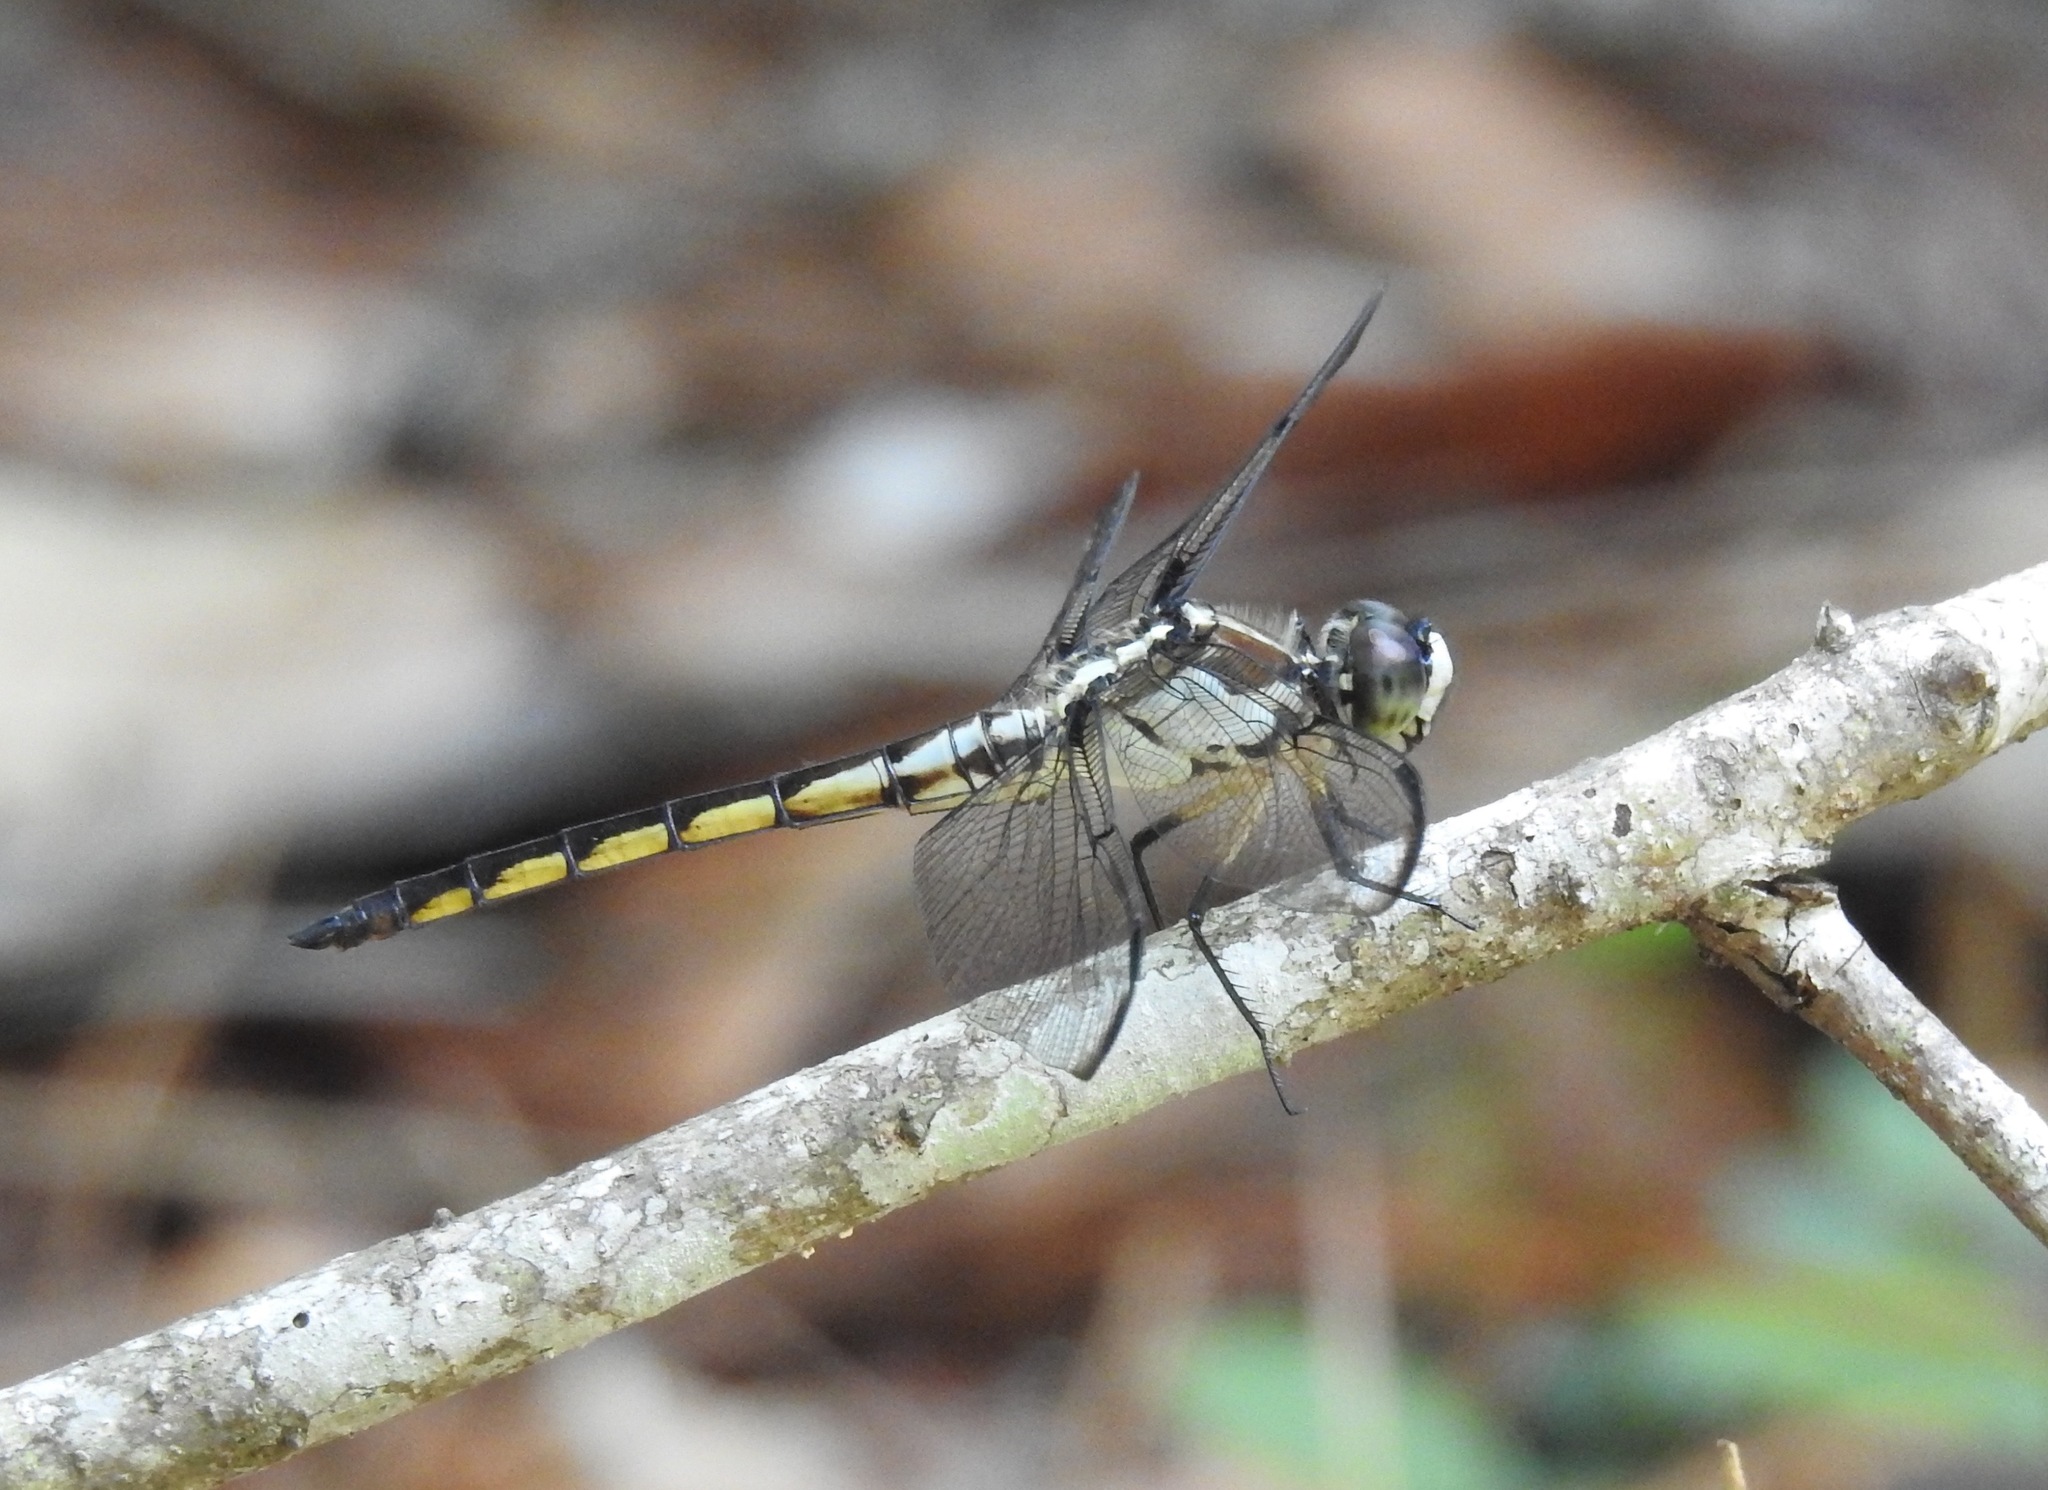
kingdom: Animalia
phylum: Arthropoda
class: Insecta
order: Odonata
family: Libellulidae
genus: Libellula
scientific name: Libellula vibrans
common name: Great blue skimmer
